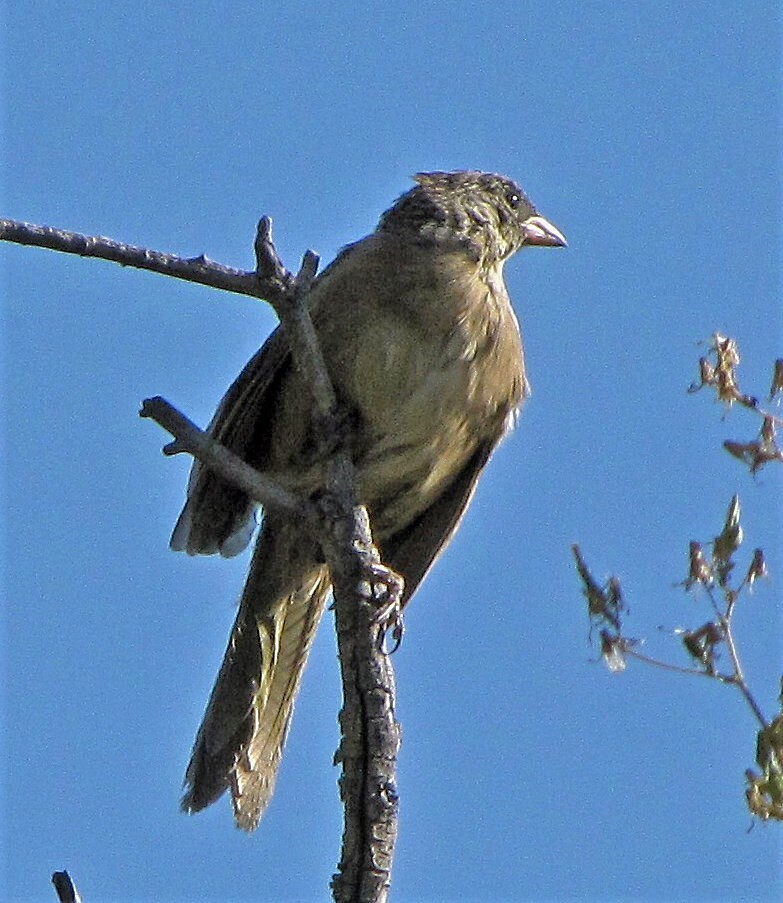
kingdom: Animalia
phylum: Chordata
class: Aves
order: Passeriformes
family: Thraupidae
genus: Embernagra
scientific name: Embernagra platensis
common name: Pampa finch
